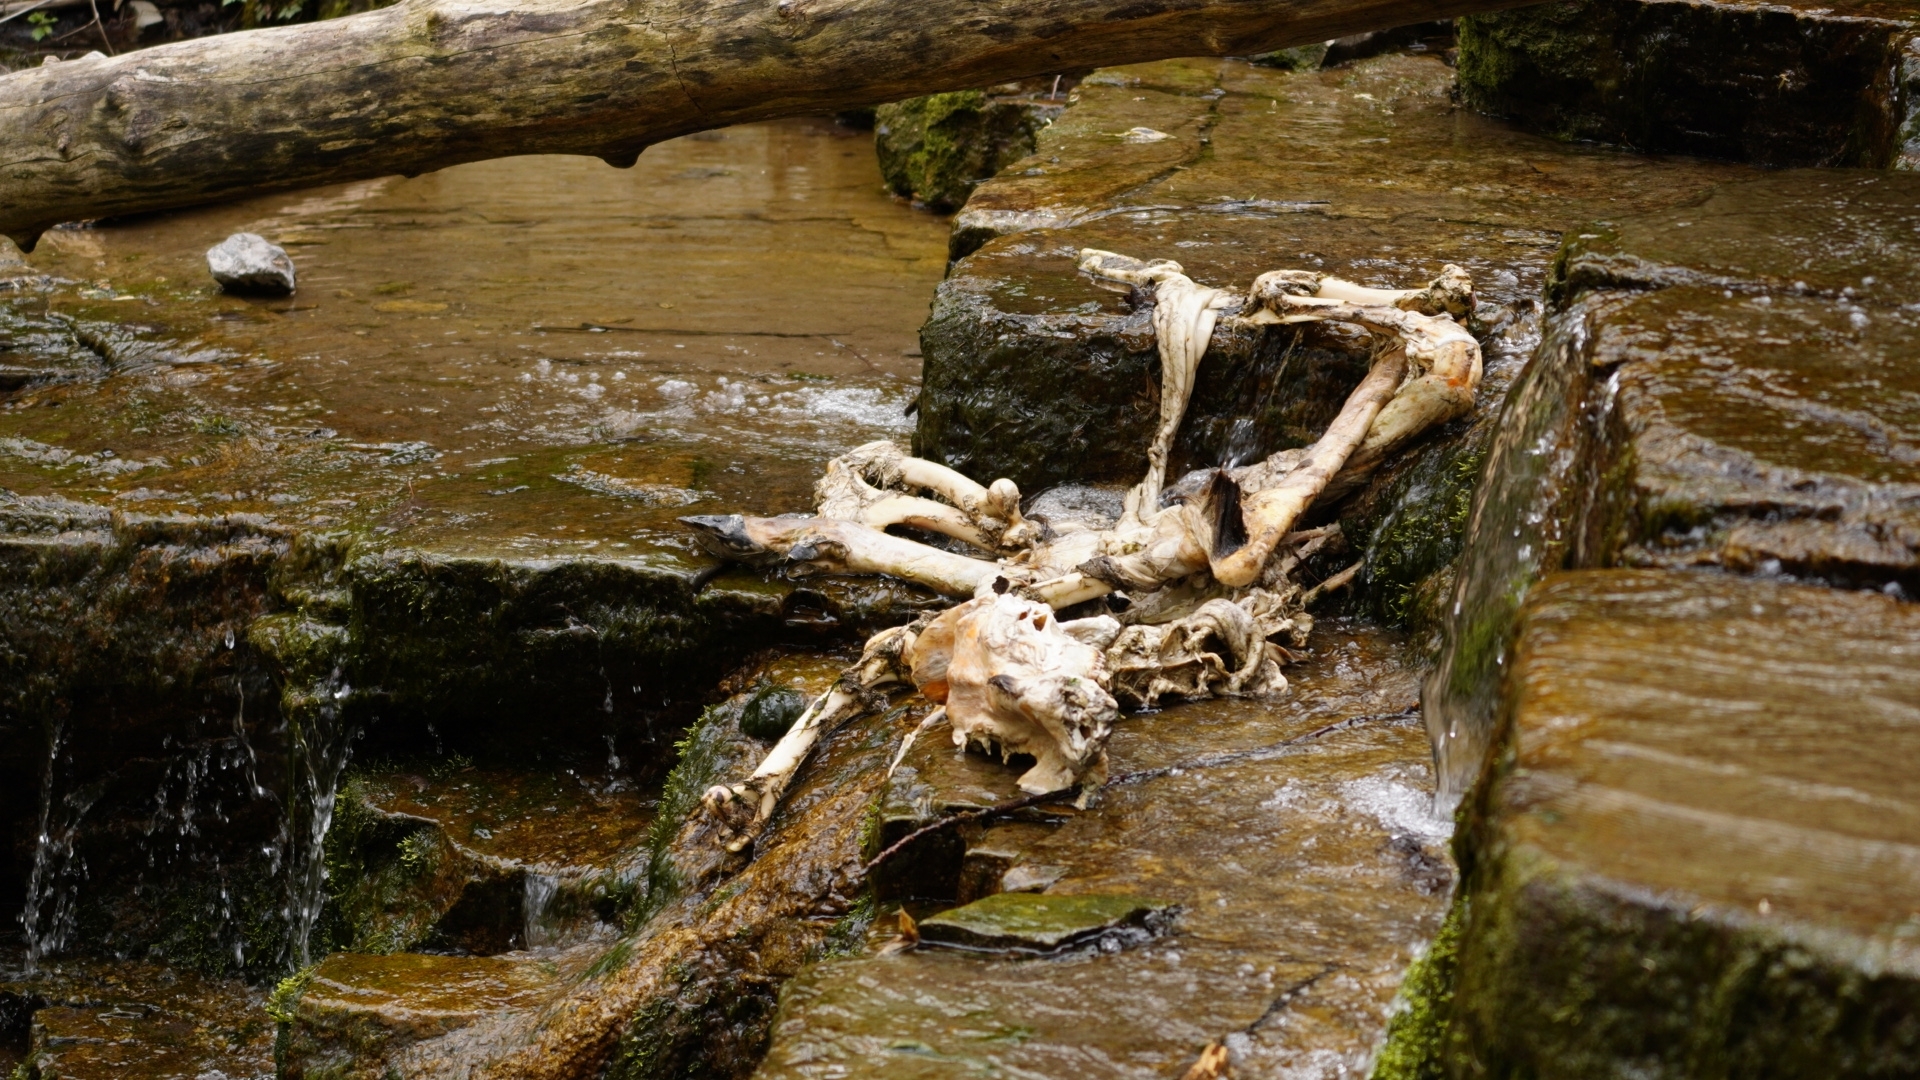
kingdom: Animalia
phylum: Chordata
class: Mammalia
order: Artiodactyla
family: Cervidae
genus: Odocoileus
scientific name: Odocoileus virginianus
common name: White-tailed deer
